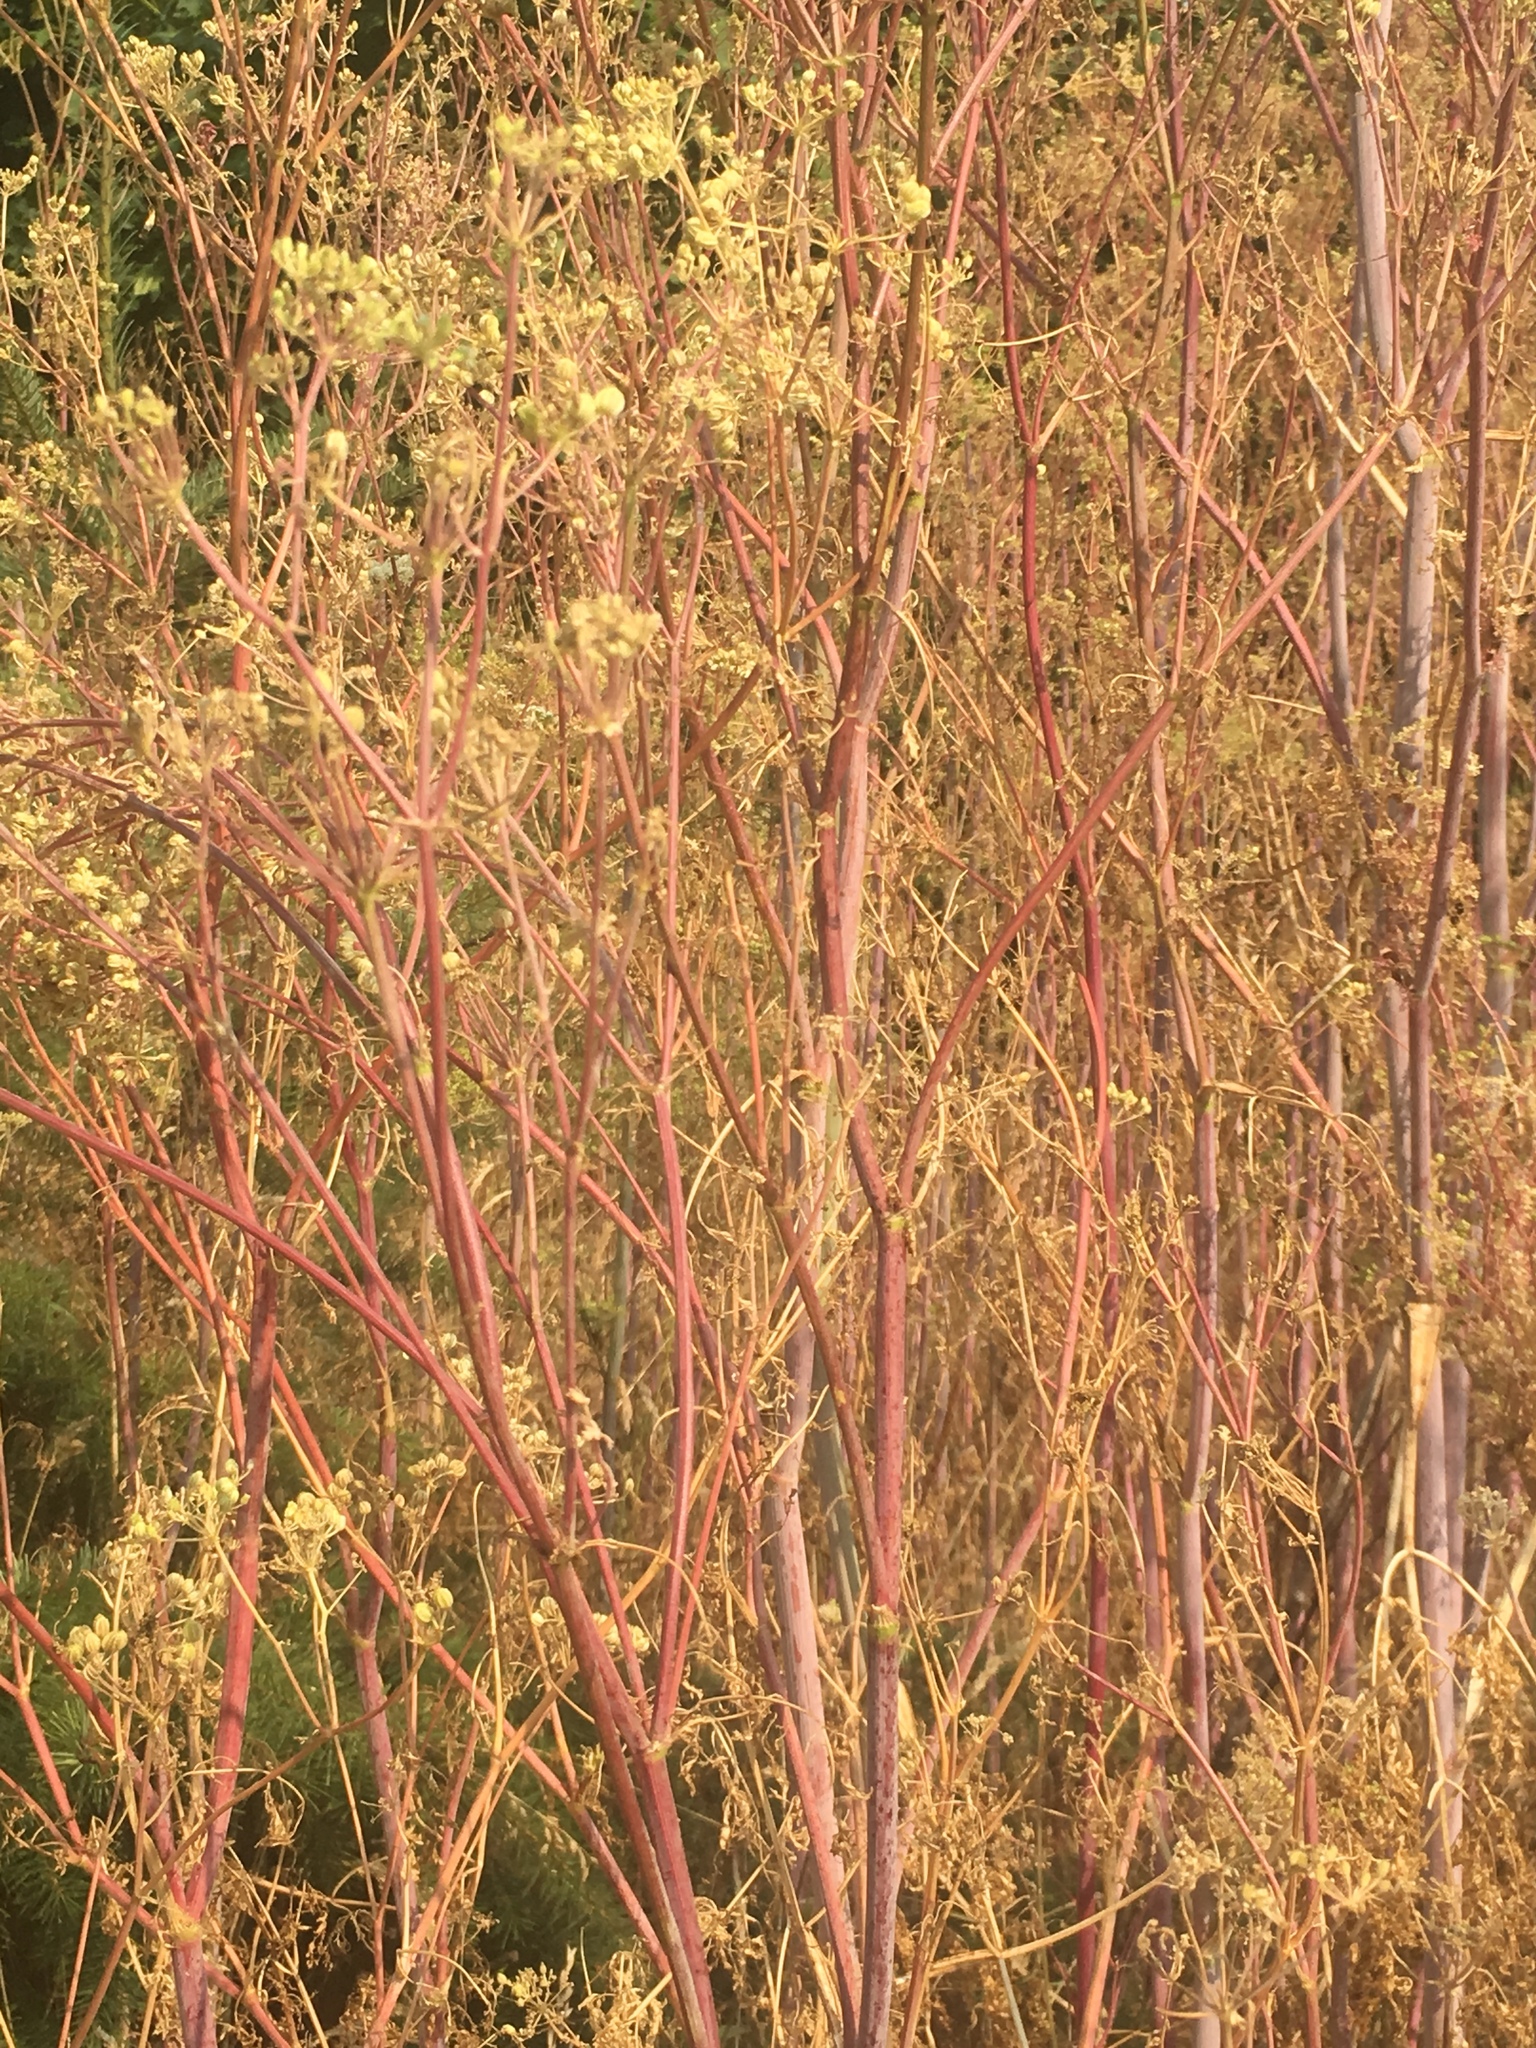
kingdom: Plantae
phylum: Tracheophyta
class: Magnoliopsida
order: Apiales
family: Apiaceae
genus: Foeniculum
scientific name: Foeniculum vulgare
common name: Fennel
